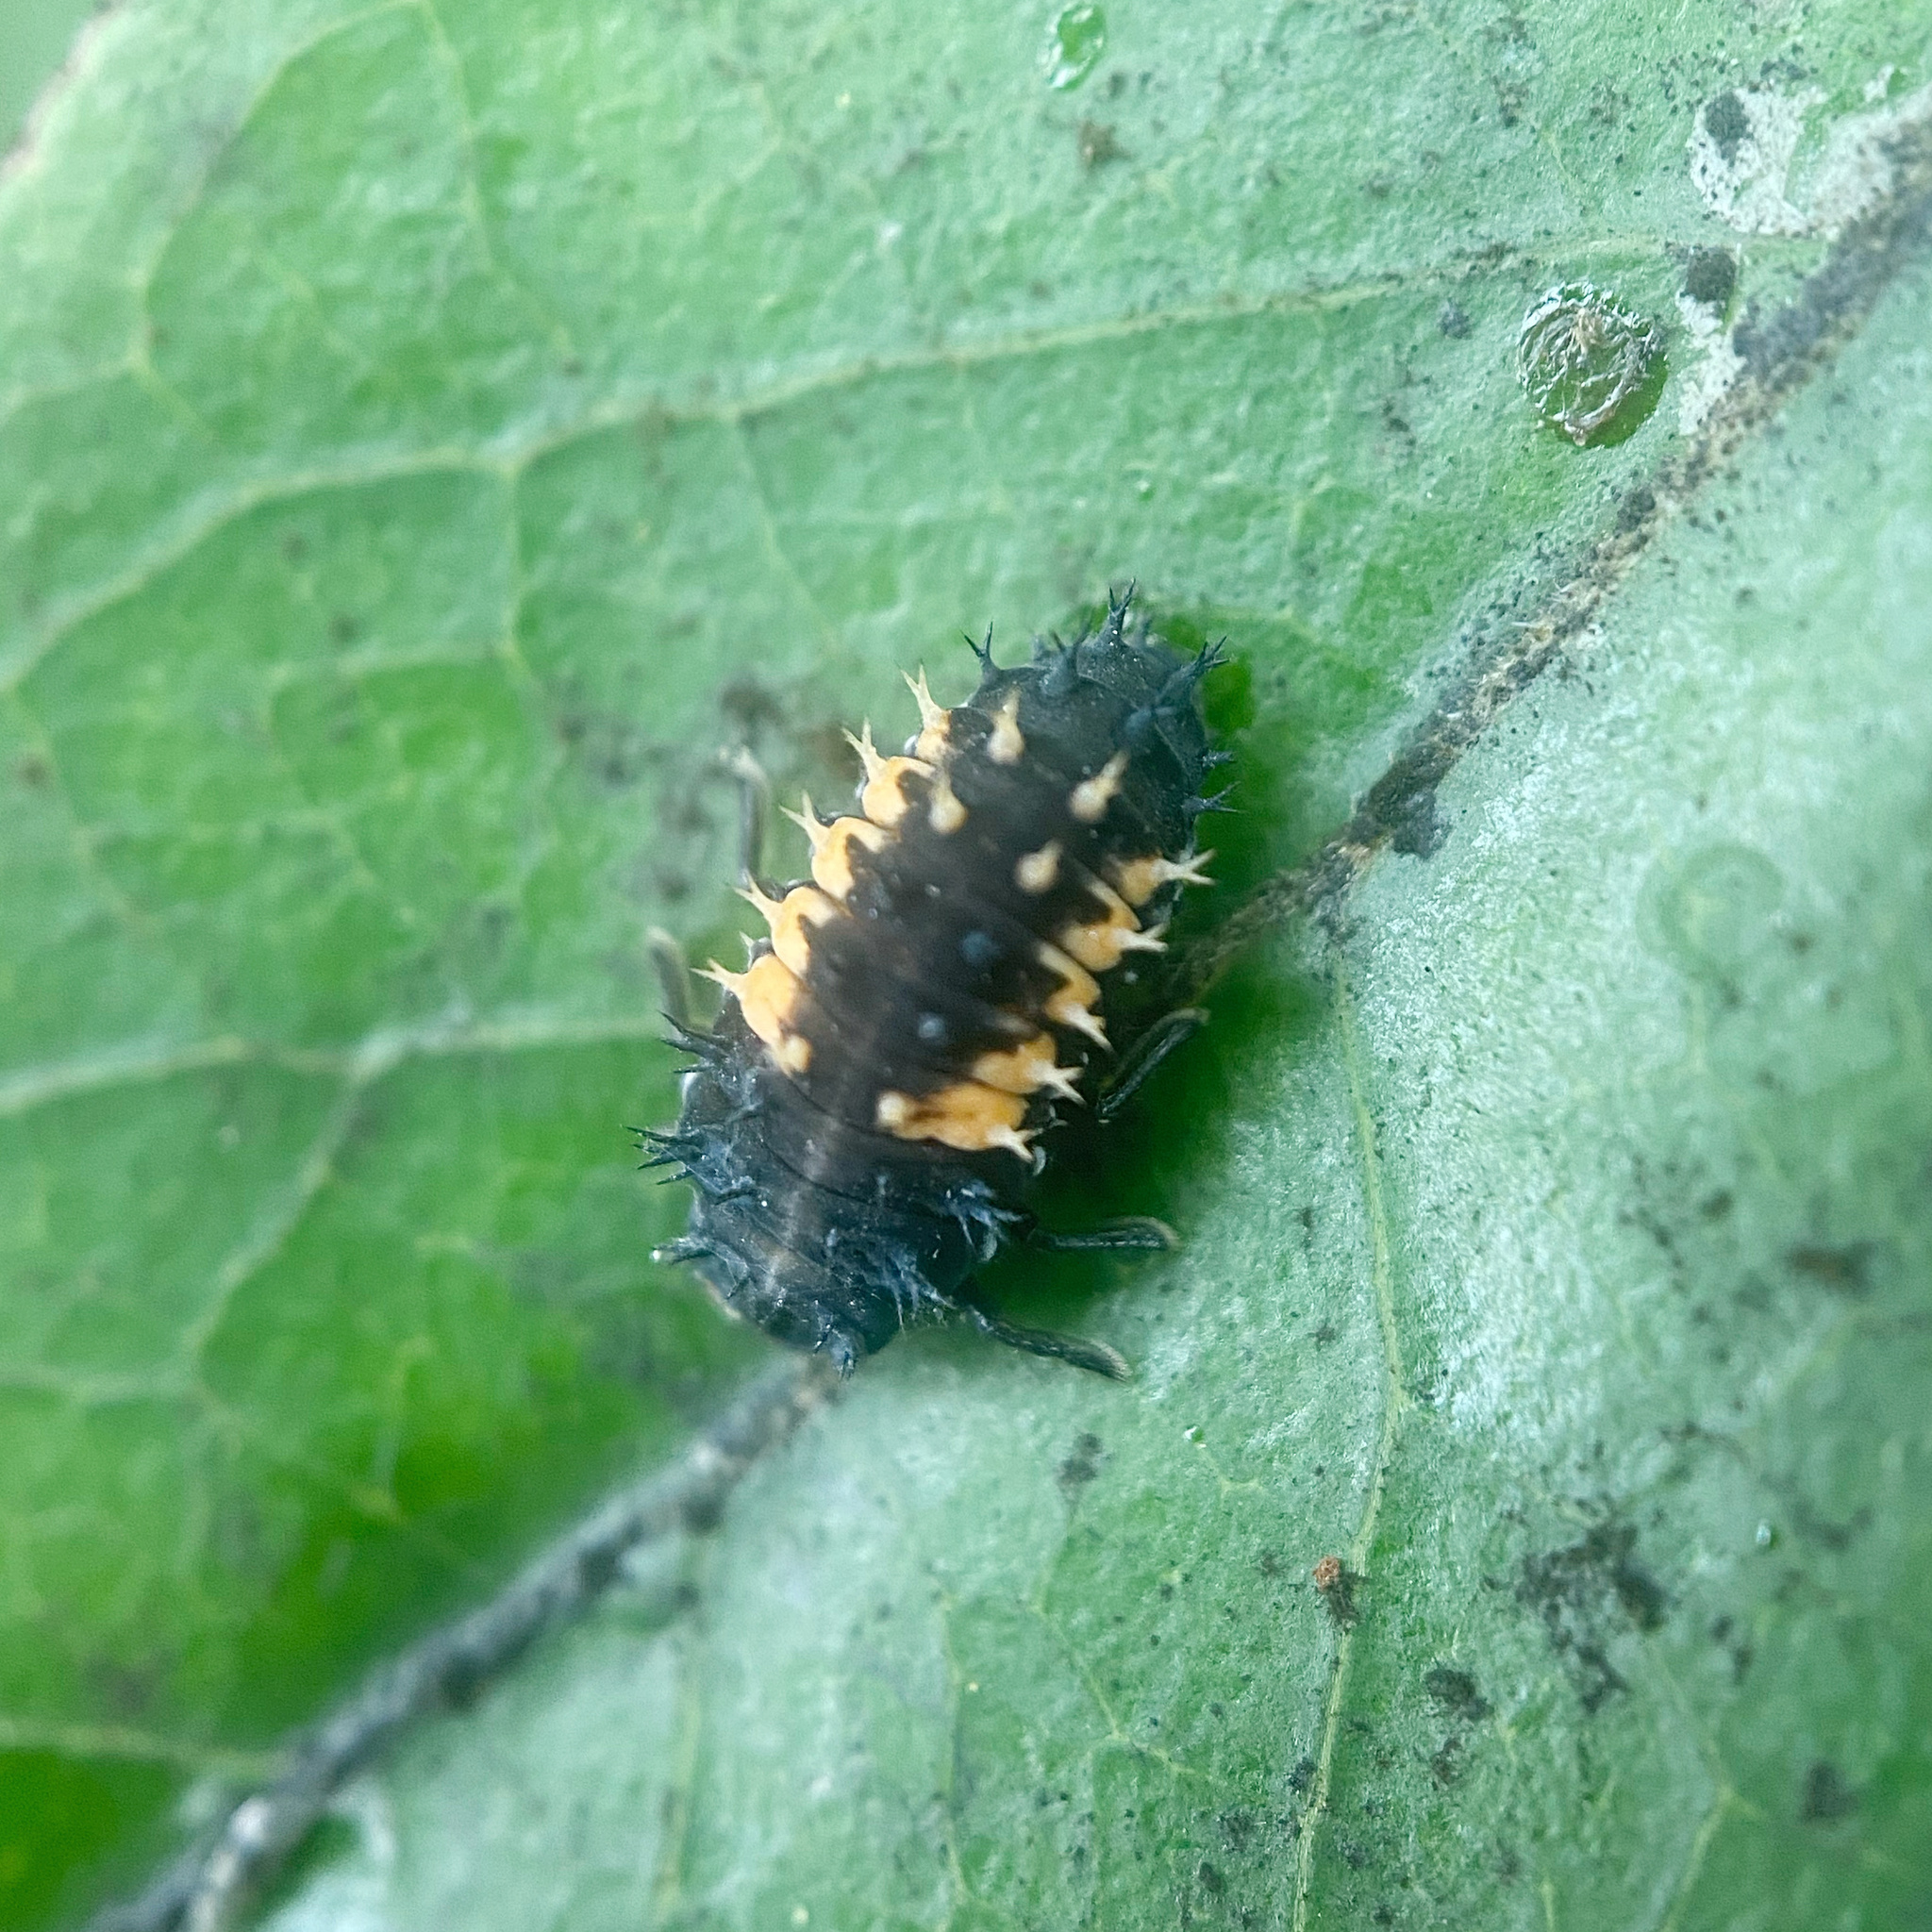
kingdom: Animalia
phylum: Arthropoda
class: Insecta
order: Coleoptera
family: Coccinellidae
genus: Harmonia
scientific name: Harmonia axyridis
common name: Harlequin ladybird
